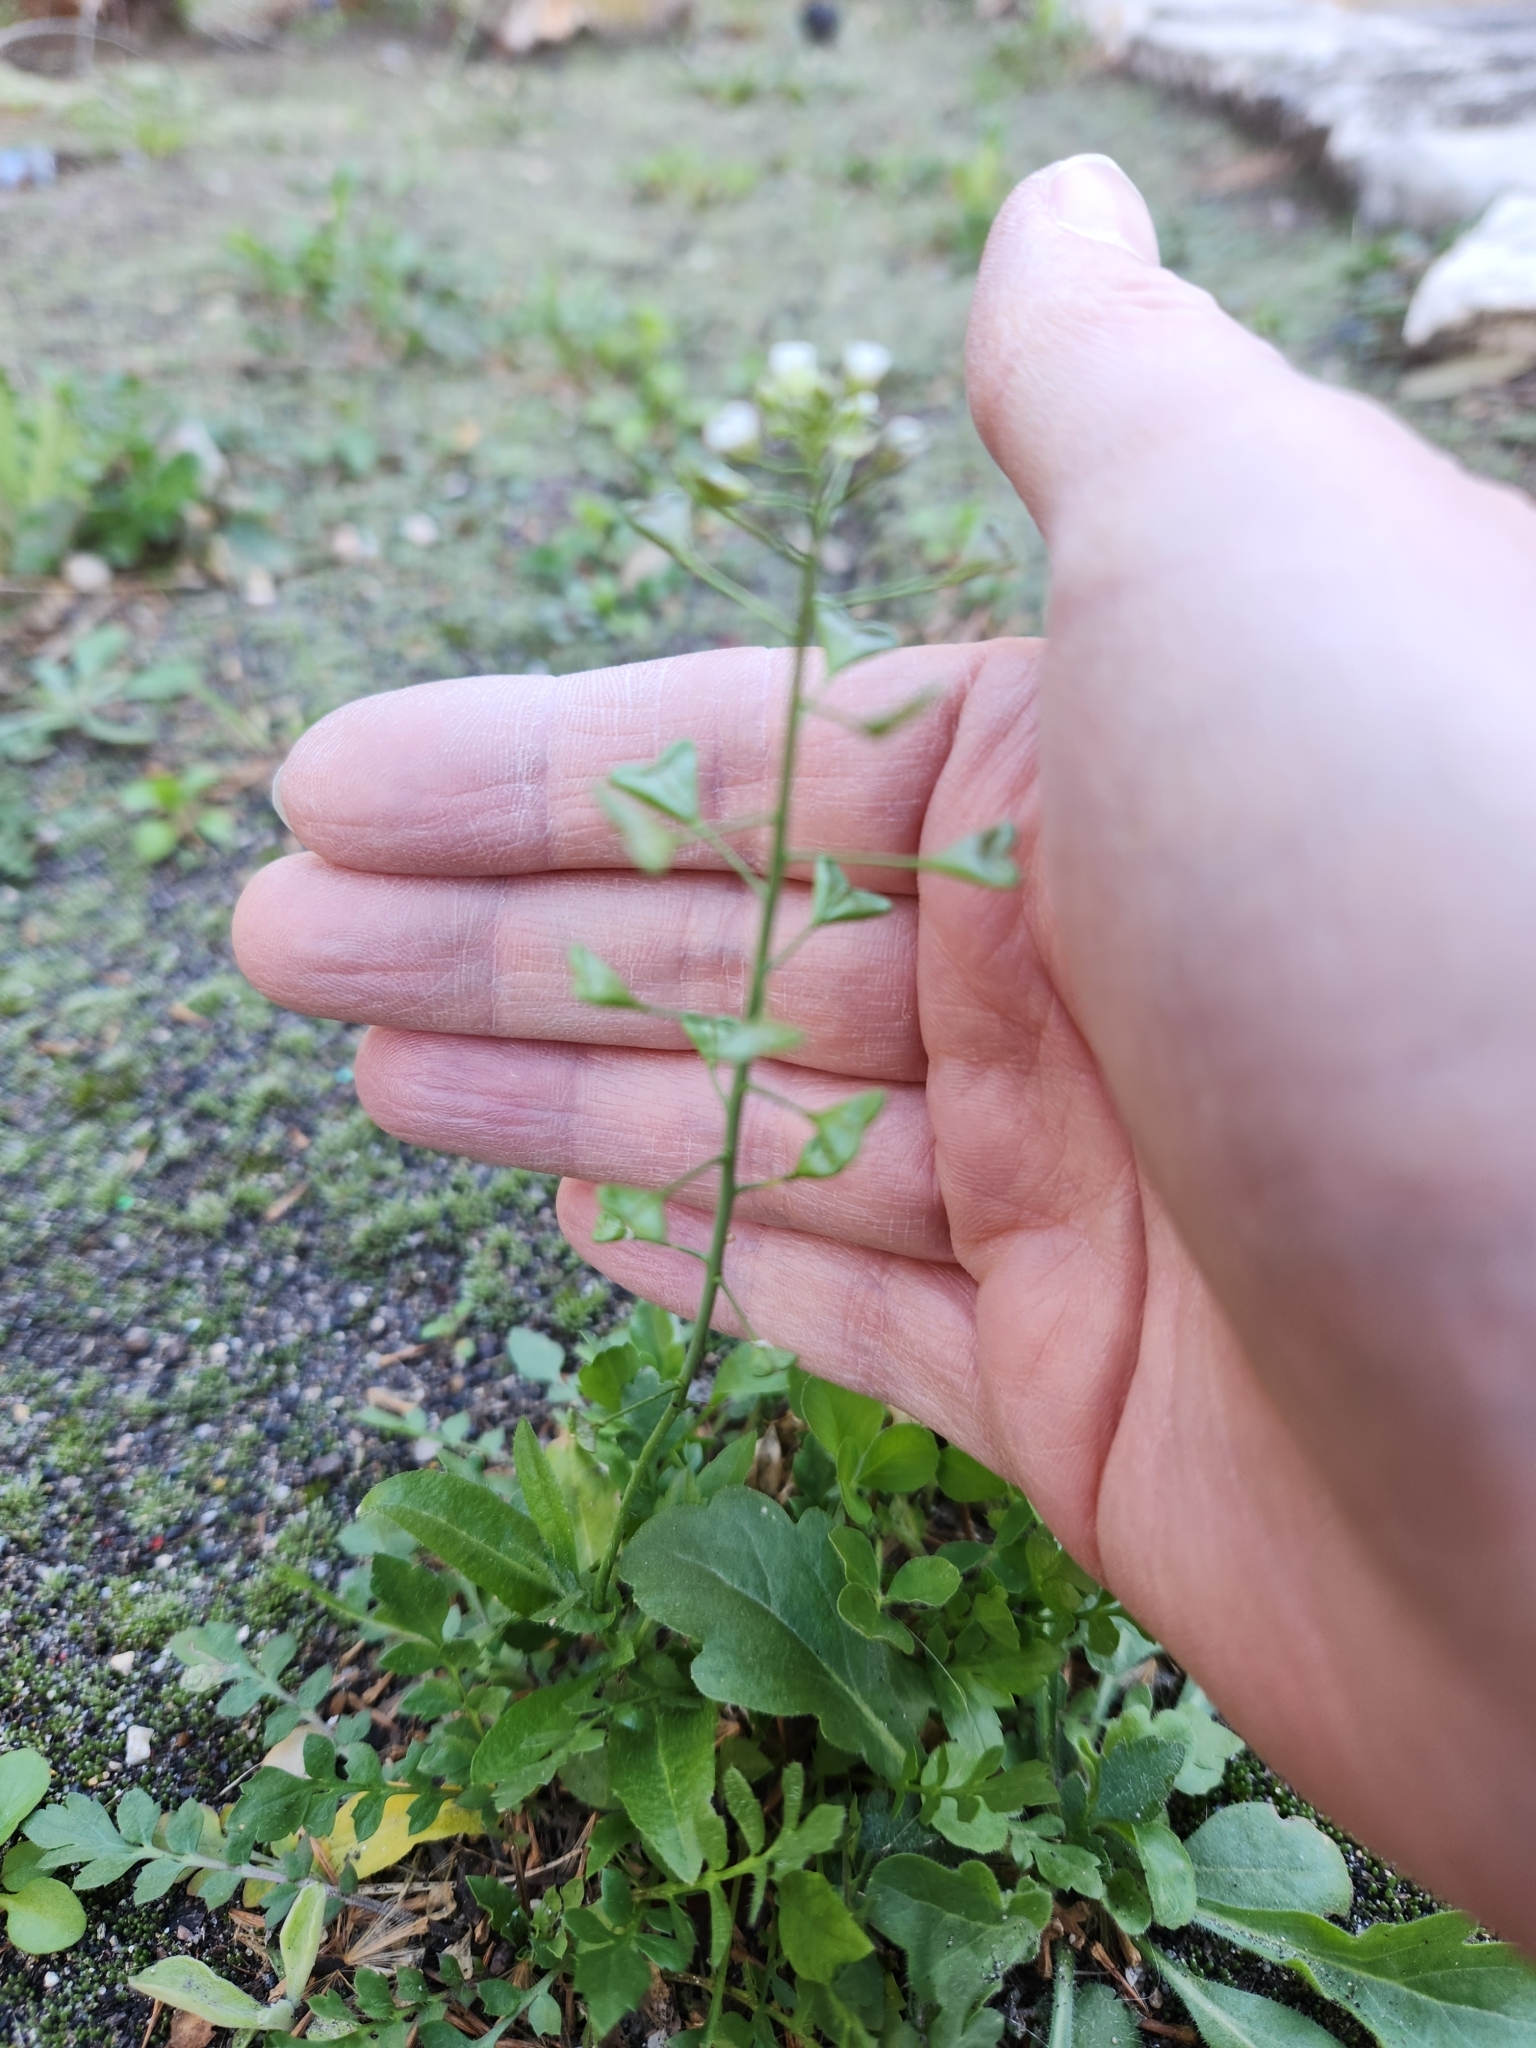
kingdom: Plantae
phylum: Tracheophyta
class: Magnoliopsida
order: Brassicales
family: Brassicaceae
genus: Capsella
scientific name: Capsella bursa-pastoris
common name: Shepherd's purse
